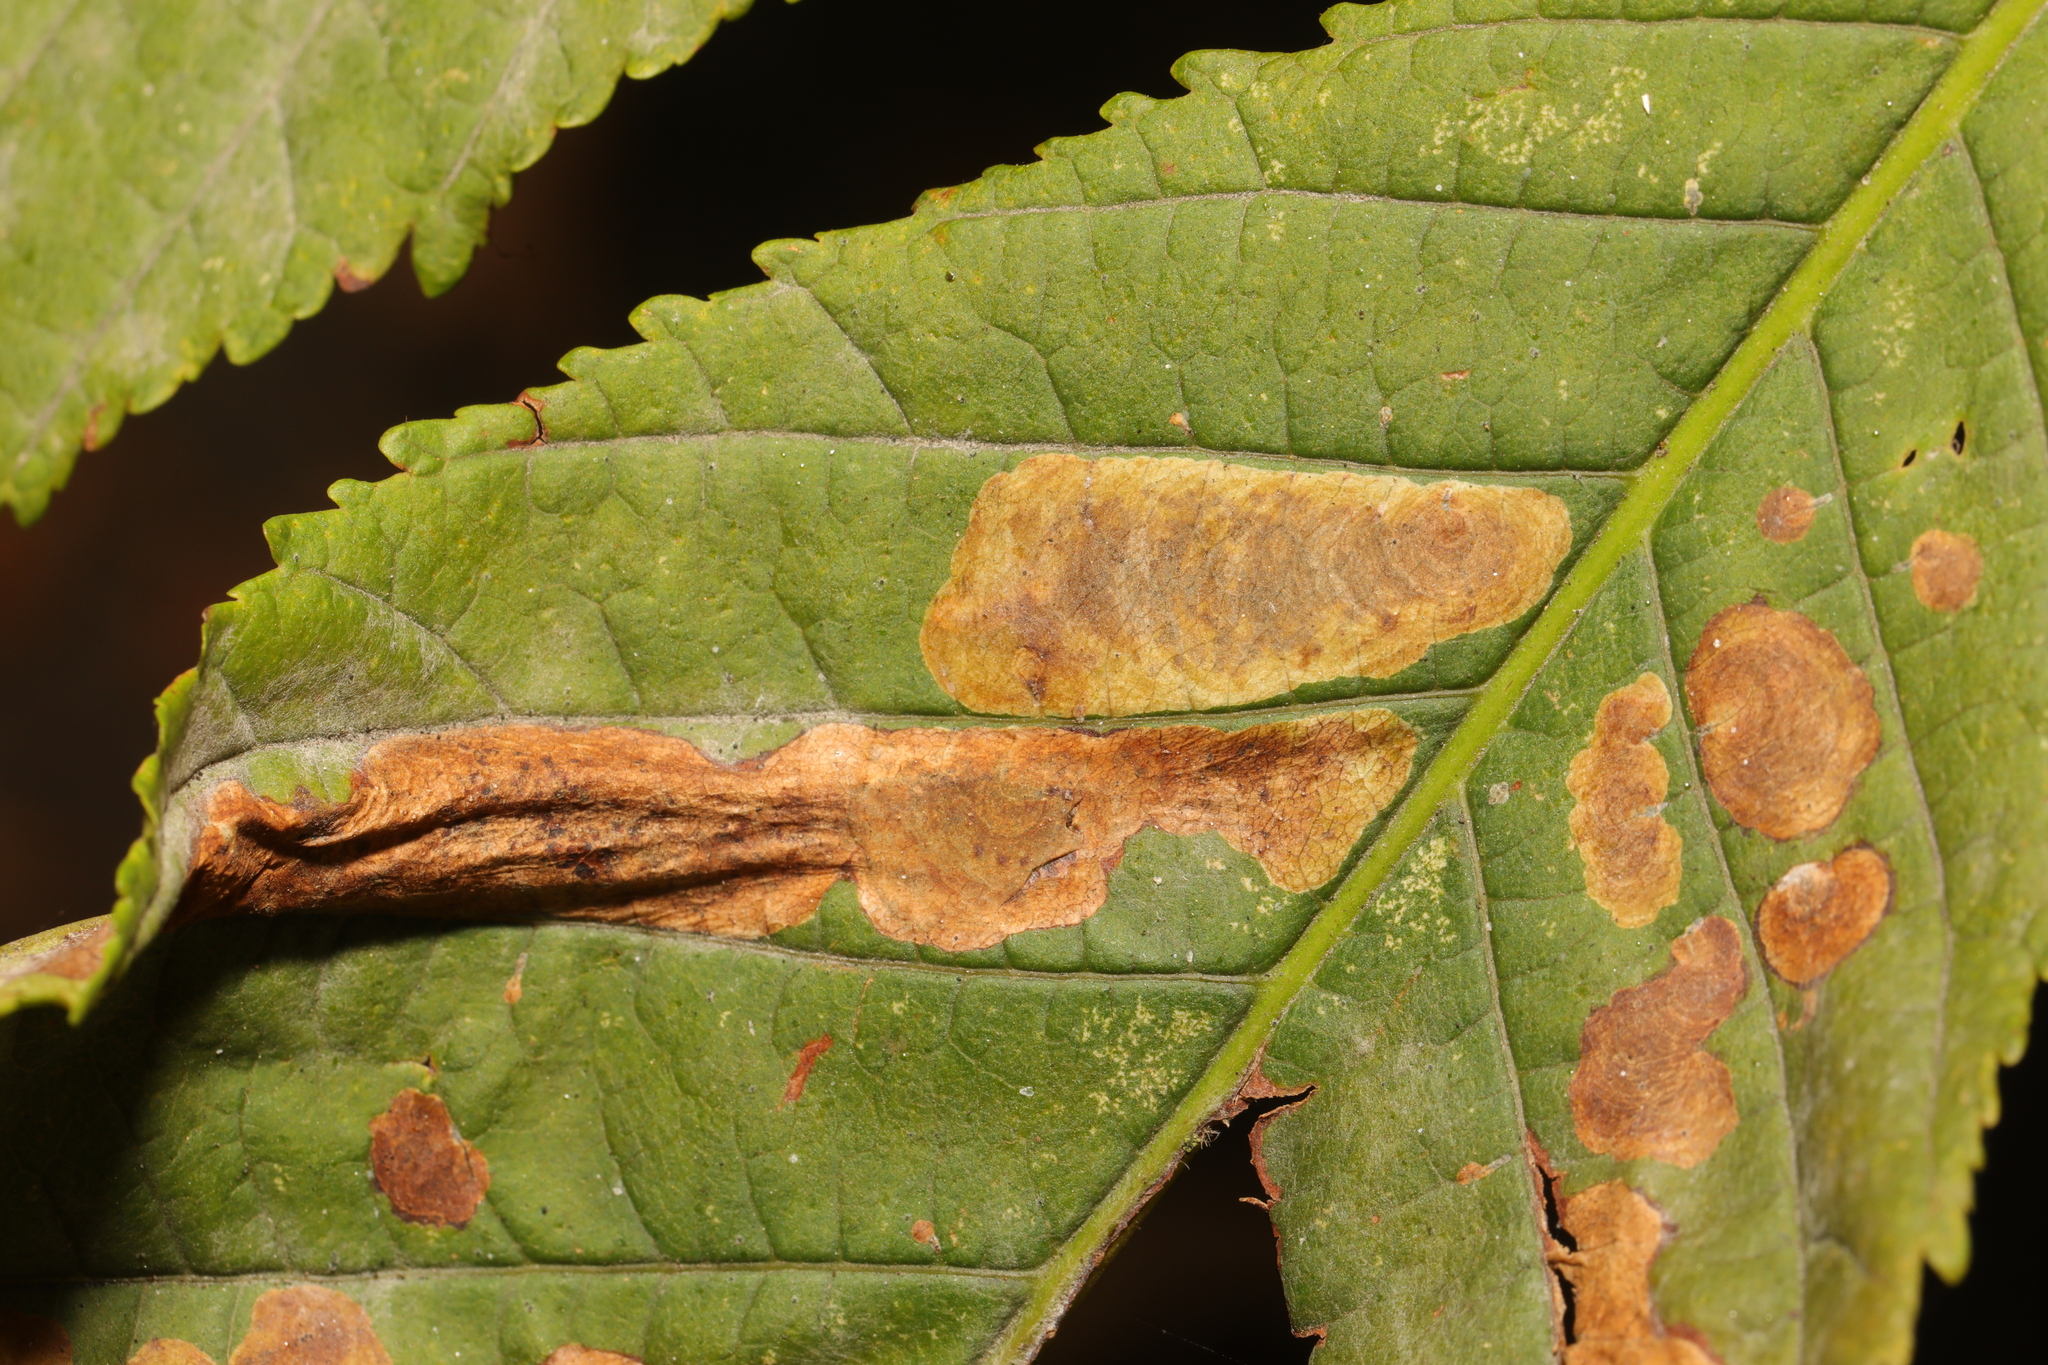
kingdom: Animalia
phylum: Arthropoda
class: Insecta
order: Lepidoptera
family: Gracillariidae
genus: Cameraria
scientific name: Cameraria ohridella
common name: Horse-chestnut leaf-miner
